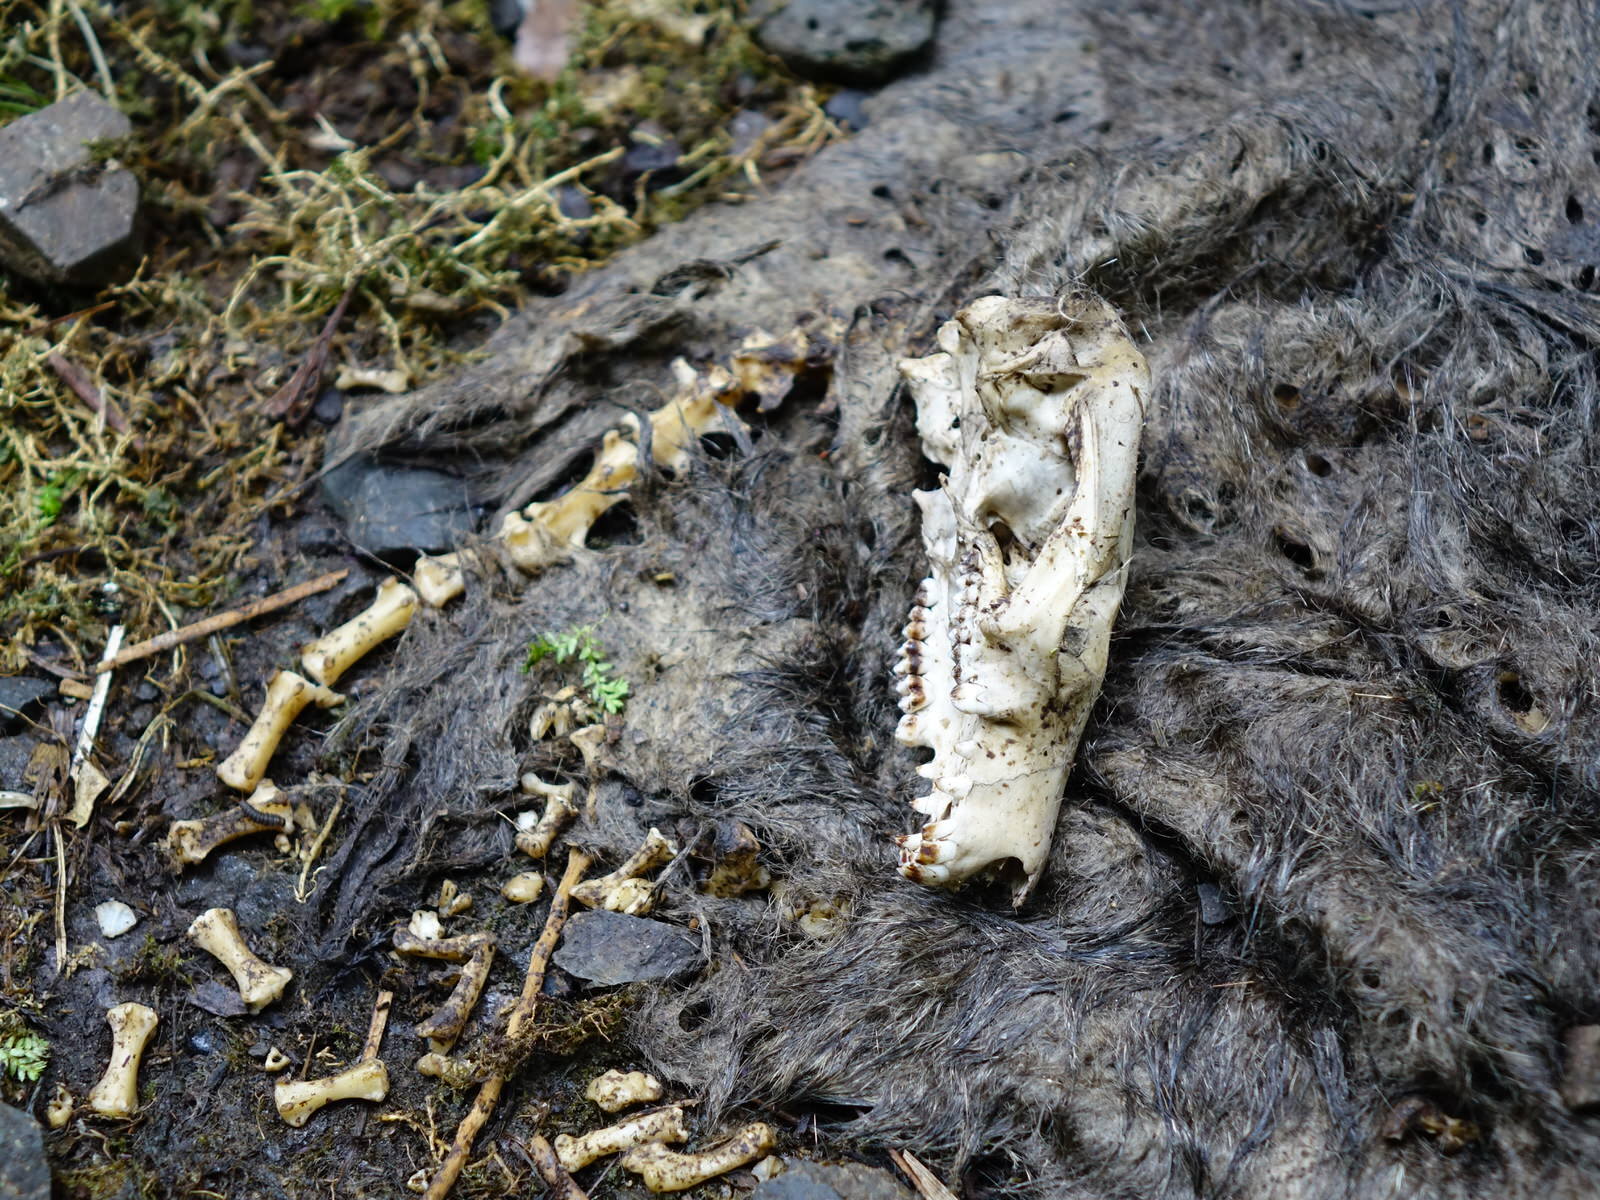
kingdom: Animalia
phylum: Chordata
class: Mammalia
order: Diprotodontia
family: Phalangeridae
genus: Trichosurus
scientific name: Trichosurus vulpecula
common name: Common brushtail
